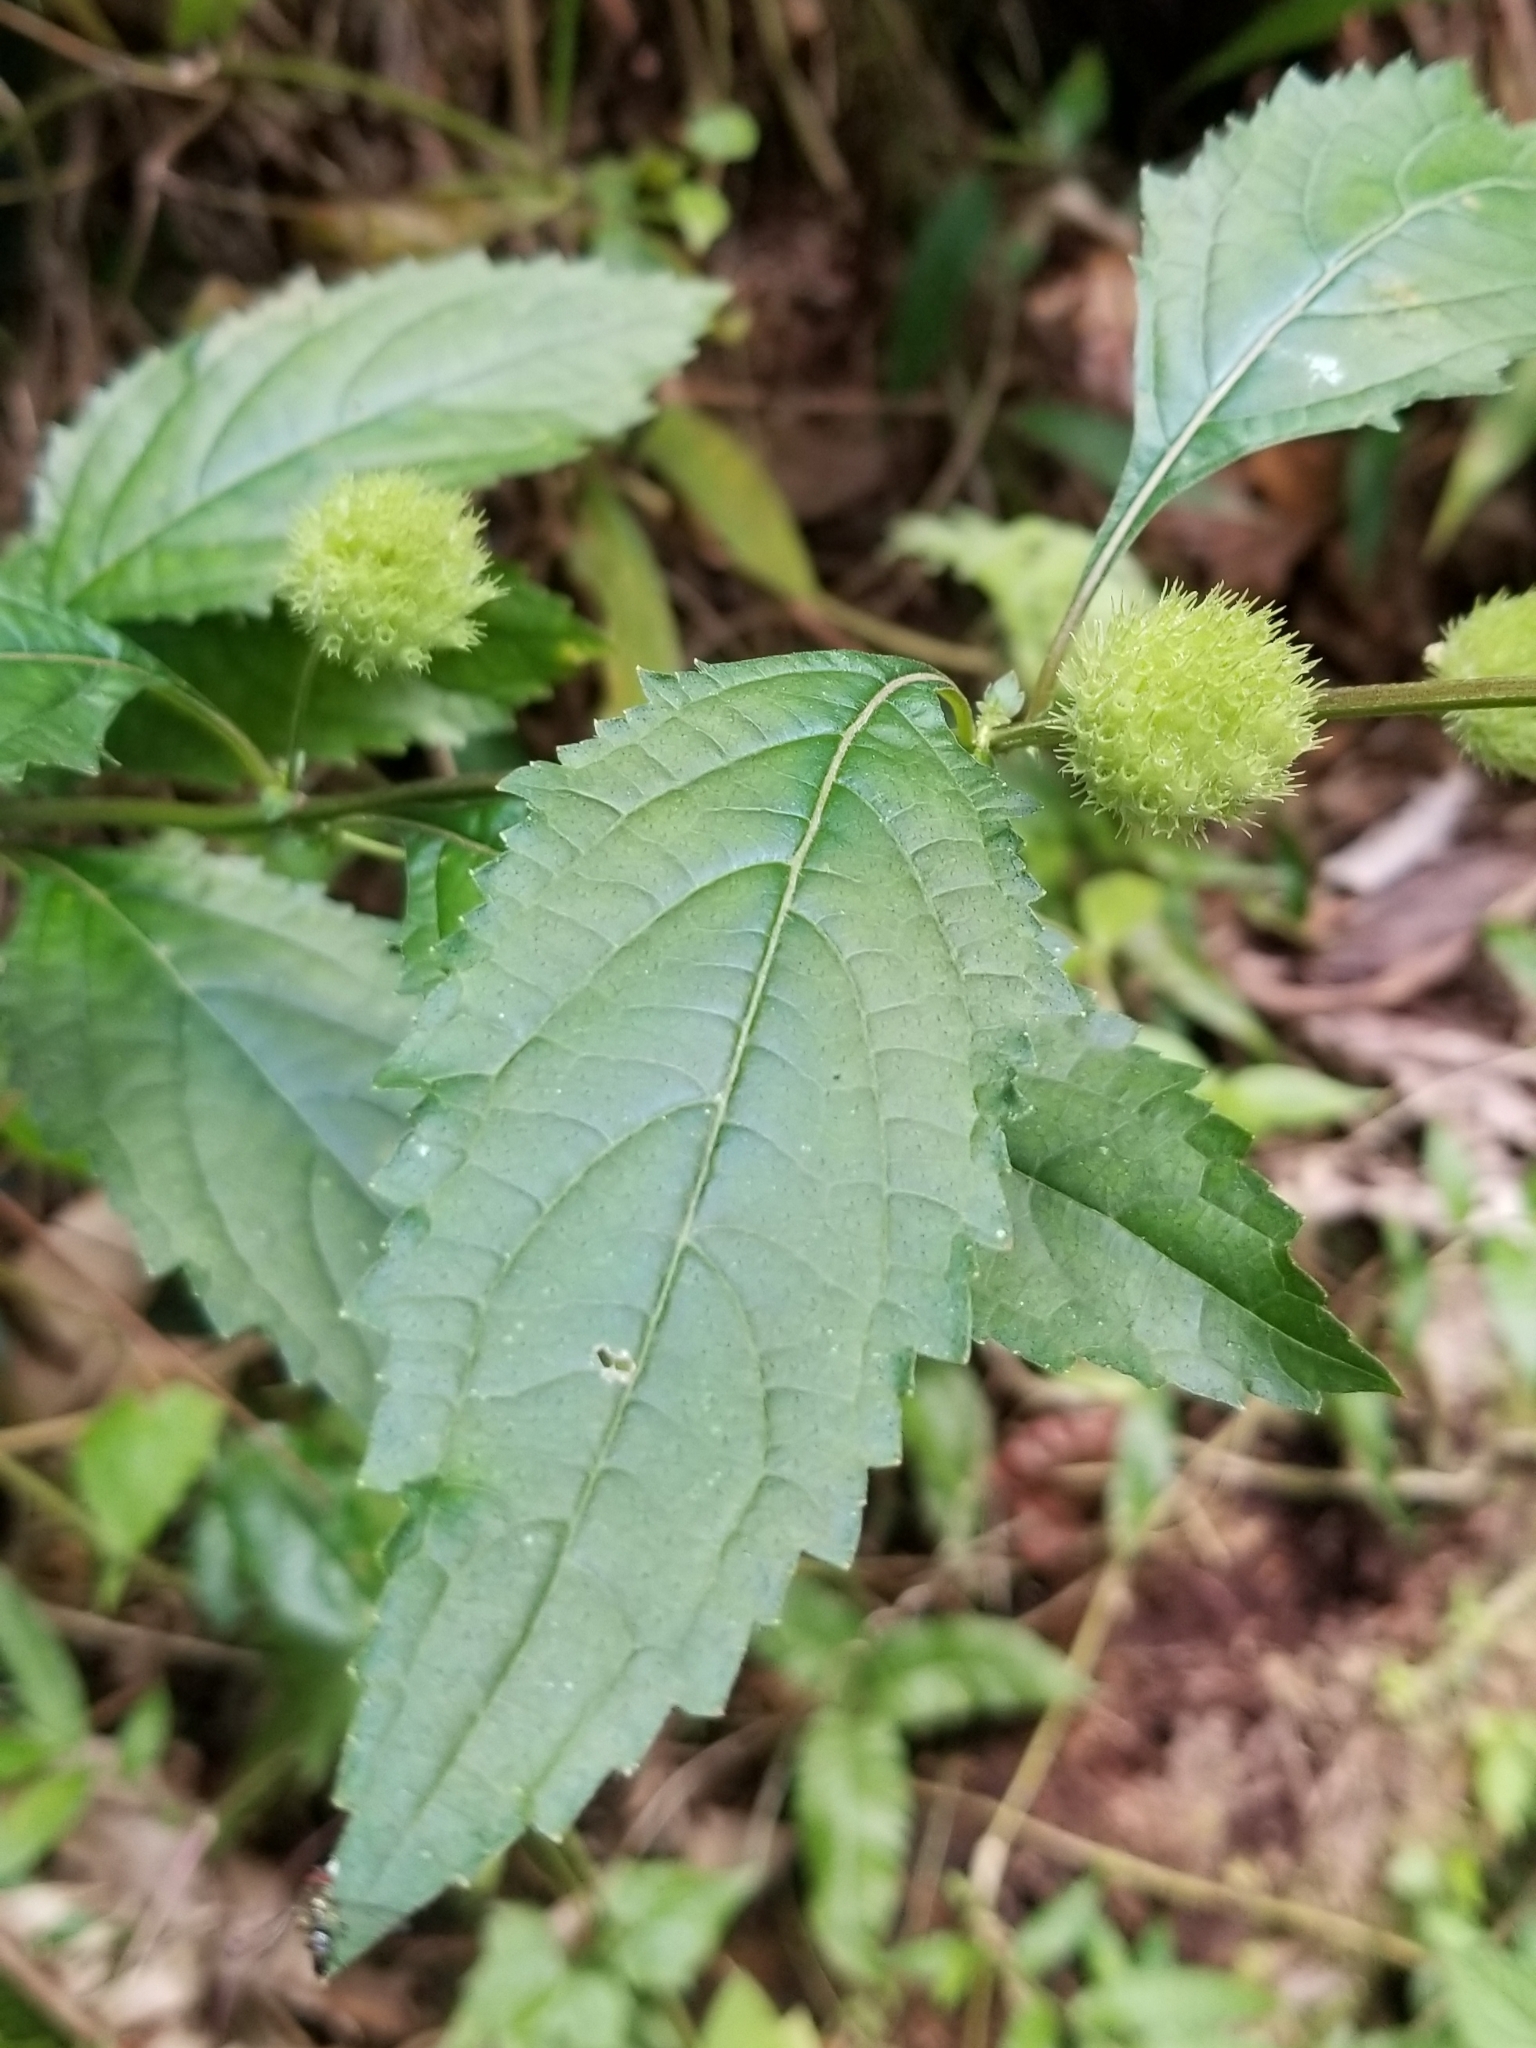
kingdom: Plantae
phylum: Tracheophyta
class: Magnoliopsida
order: Lamiales
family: Lamiaceae
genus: Hyptis
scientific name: Hyptis capitata
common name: False ironwort
